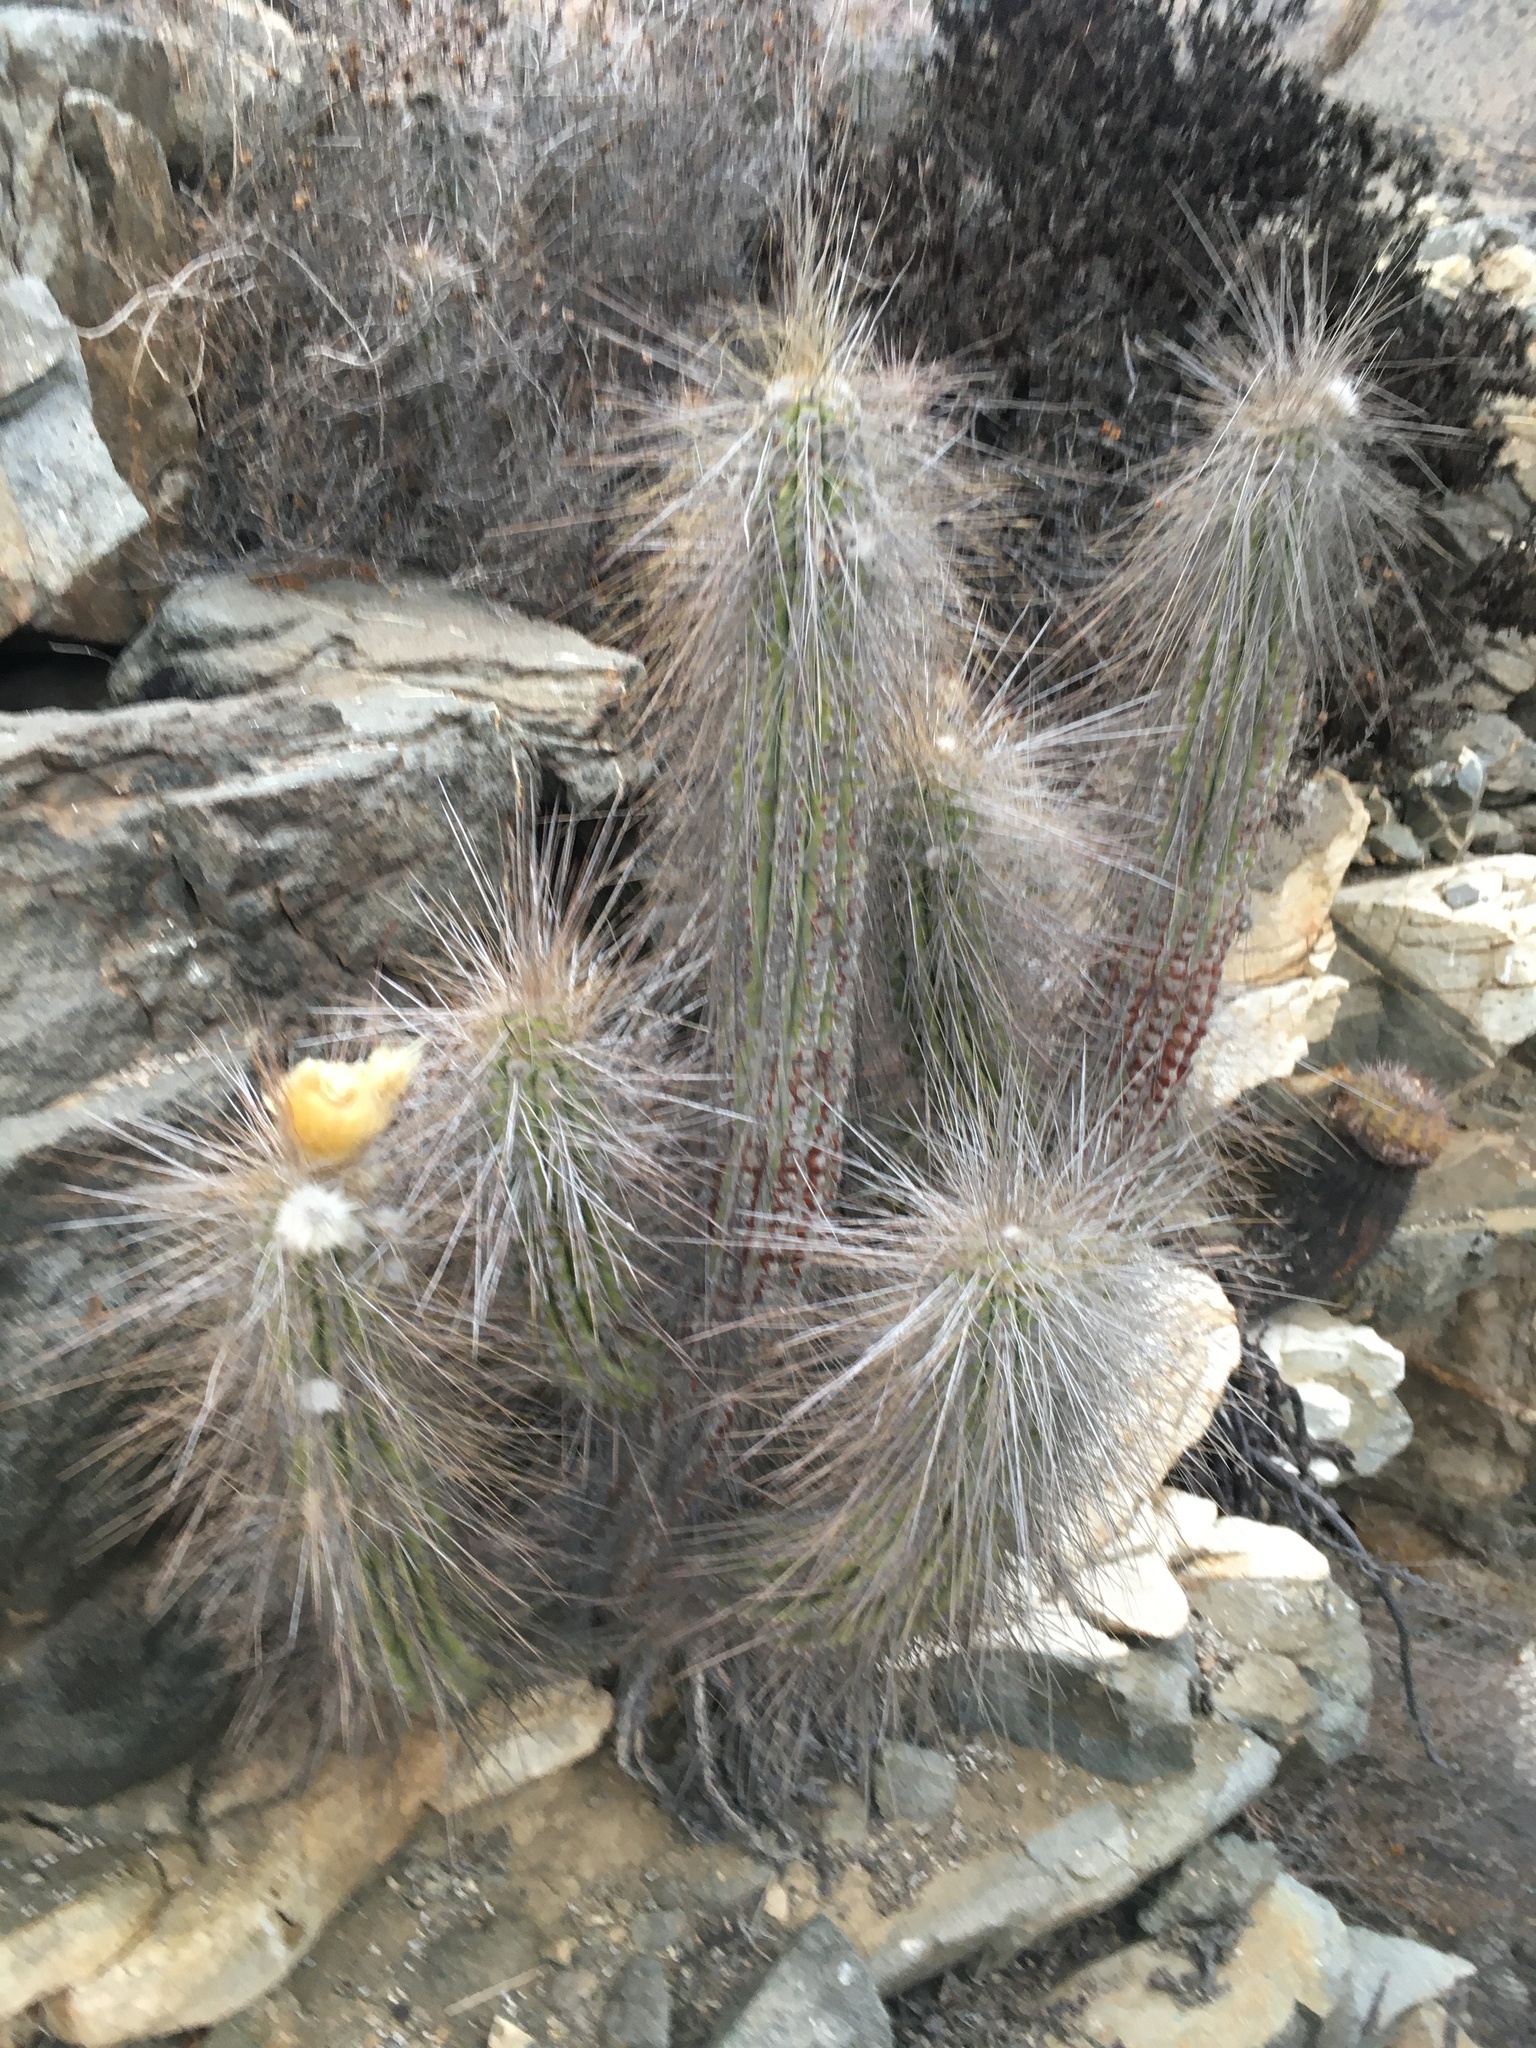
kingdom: Plantae
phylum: Tracheophyta
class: Magnoliopsida
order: Caryophyllales
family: Cactaceae
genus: Eulychnia
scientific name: Eulychnia breviflora
